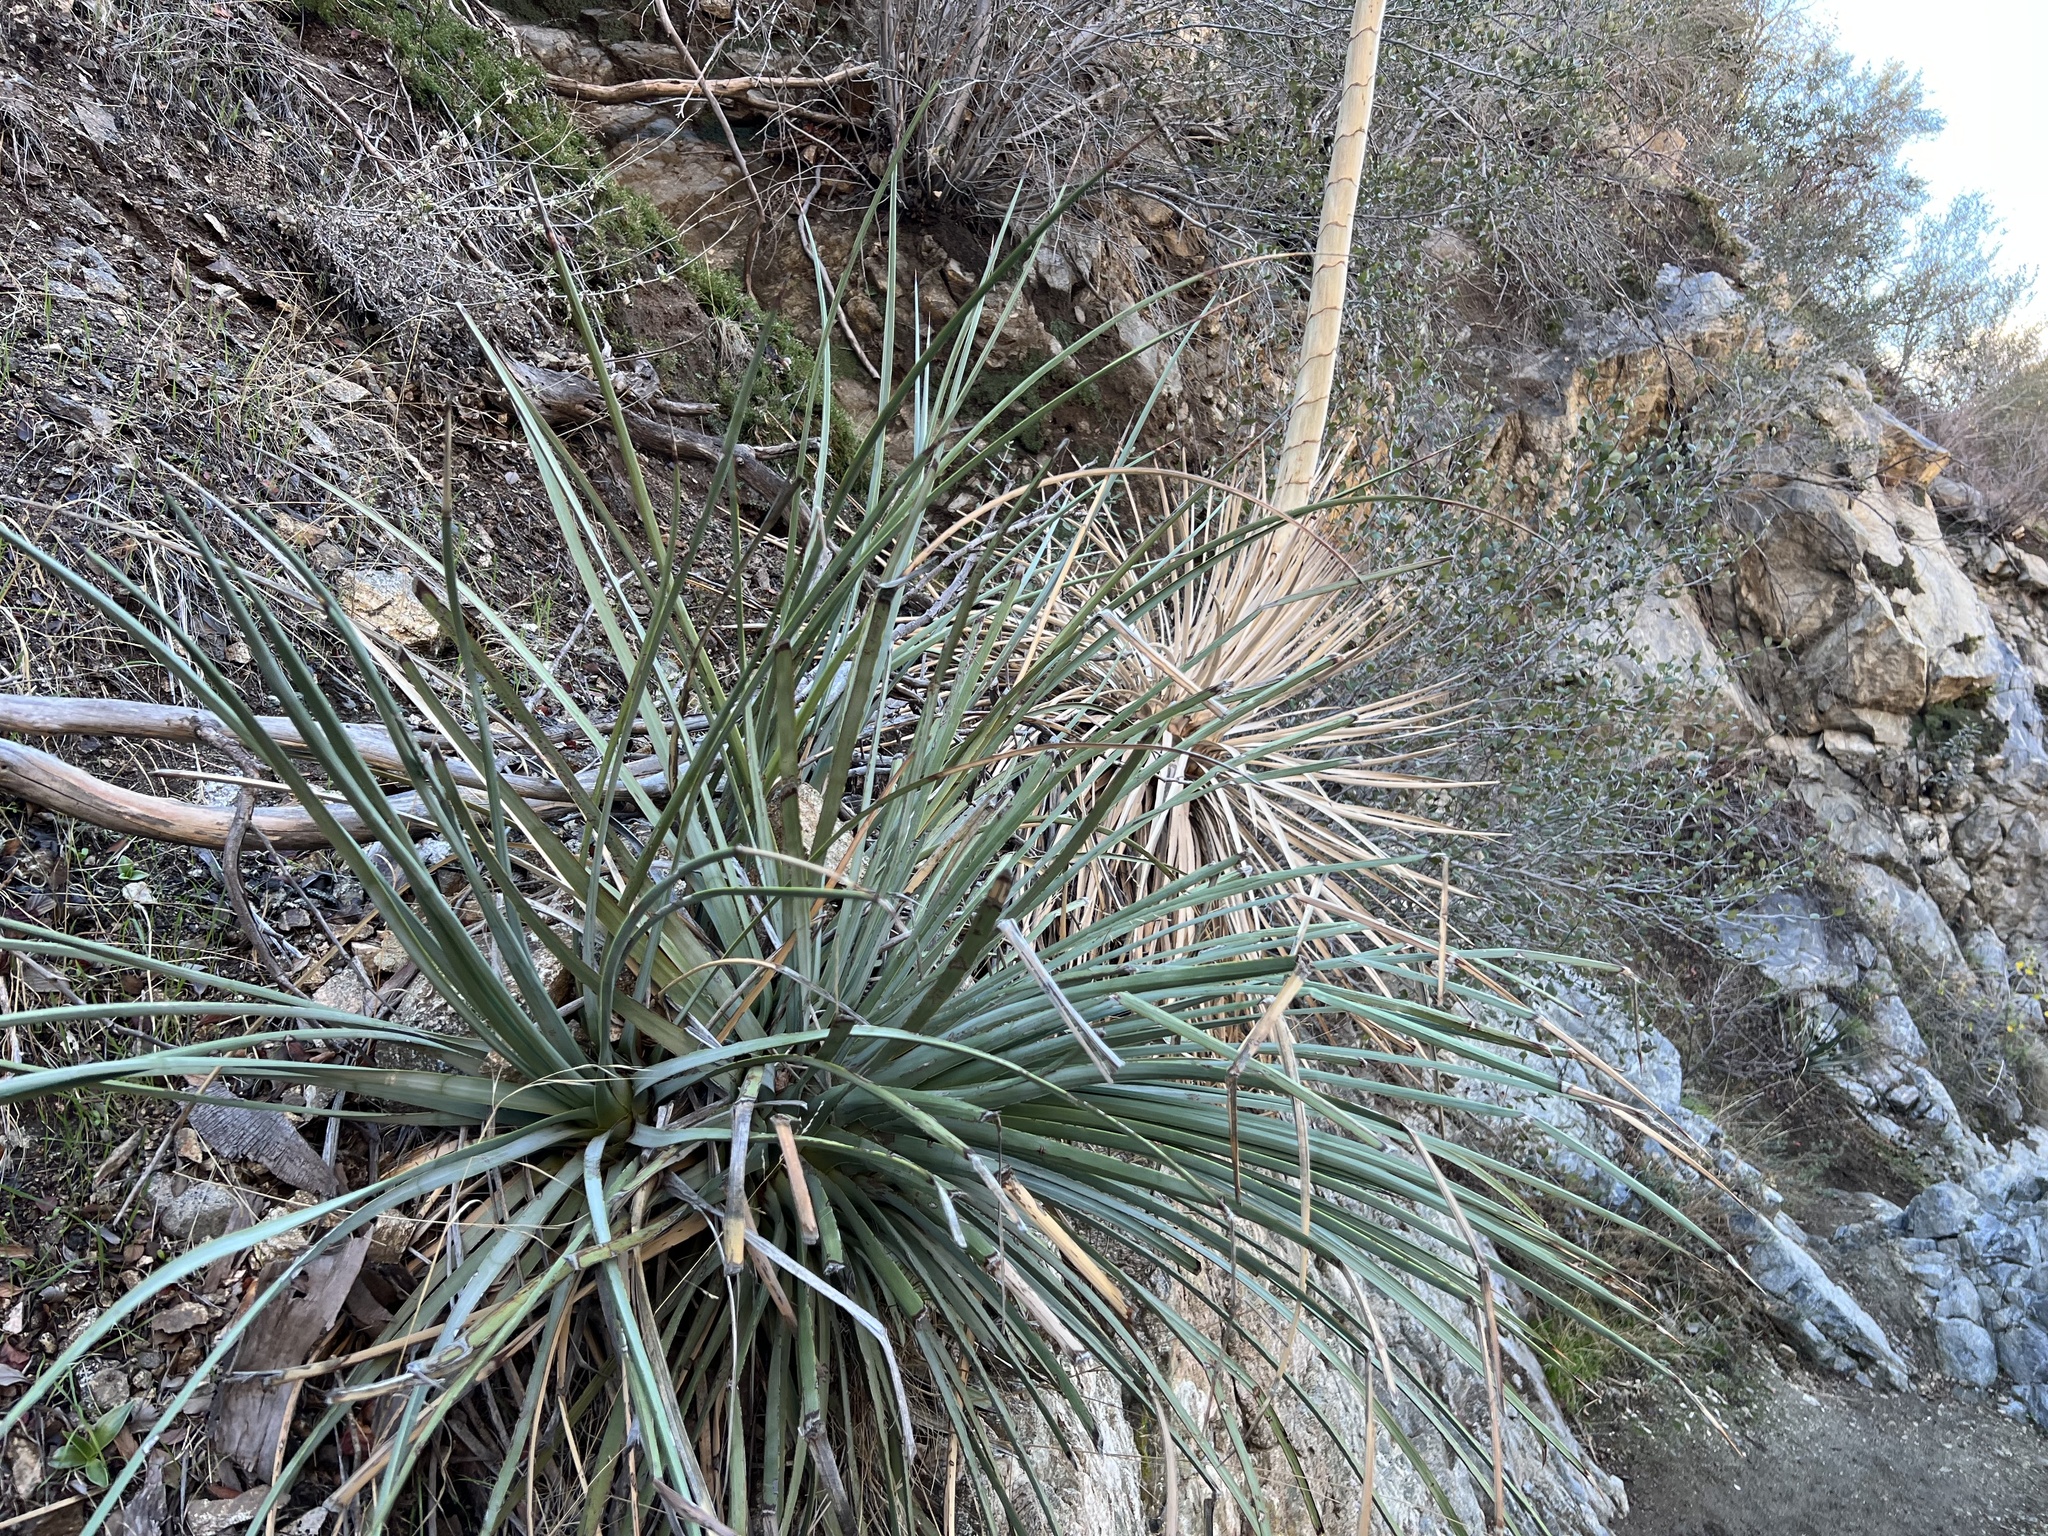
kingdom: Plantae
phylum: Tracheophyta
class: Liliopsida
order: Asparagales
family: Asparagaceae
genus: Hesperoyucca
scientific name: Hesperoyucca whipplei
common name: Our lord's-candle
